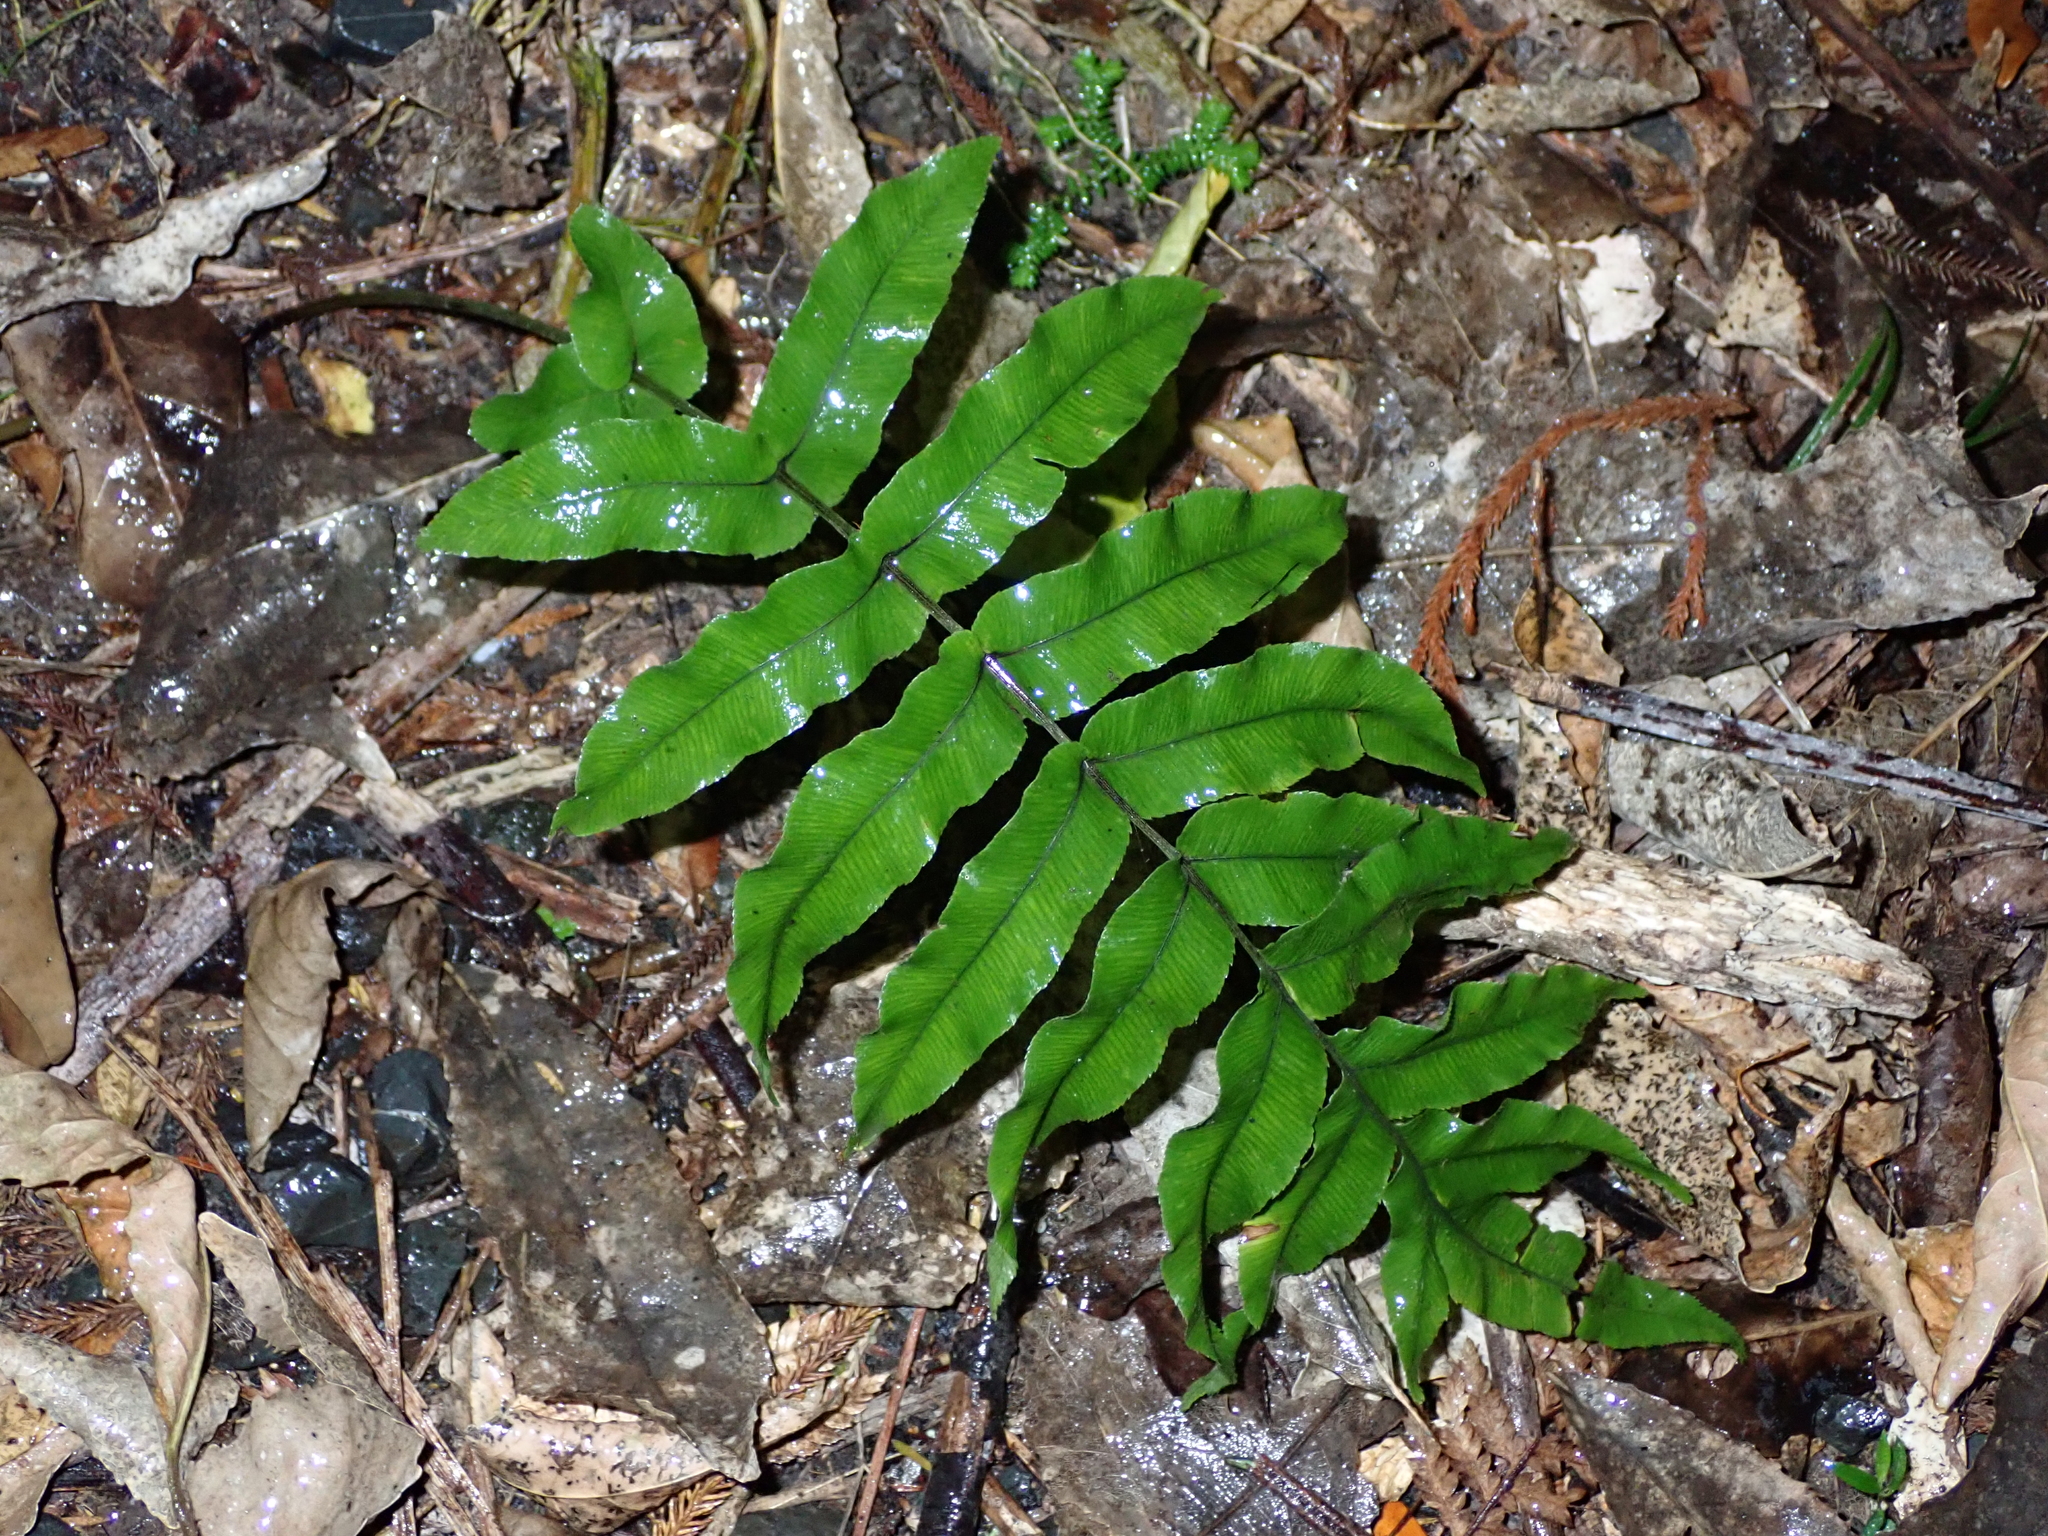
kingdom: Plantae
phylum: Tracheophyta
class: Polypodiopsida
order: Polypodiales
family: Blechnaceae
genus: Parablechnum
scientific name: Parablechnum procerum
